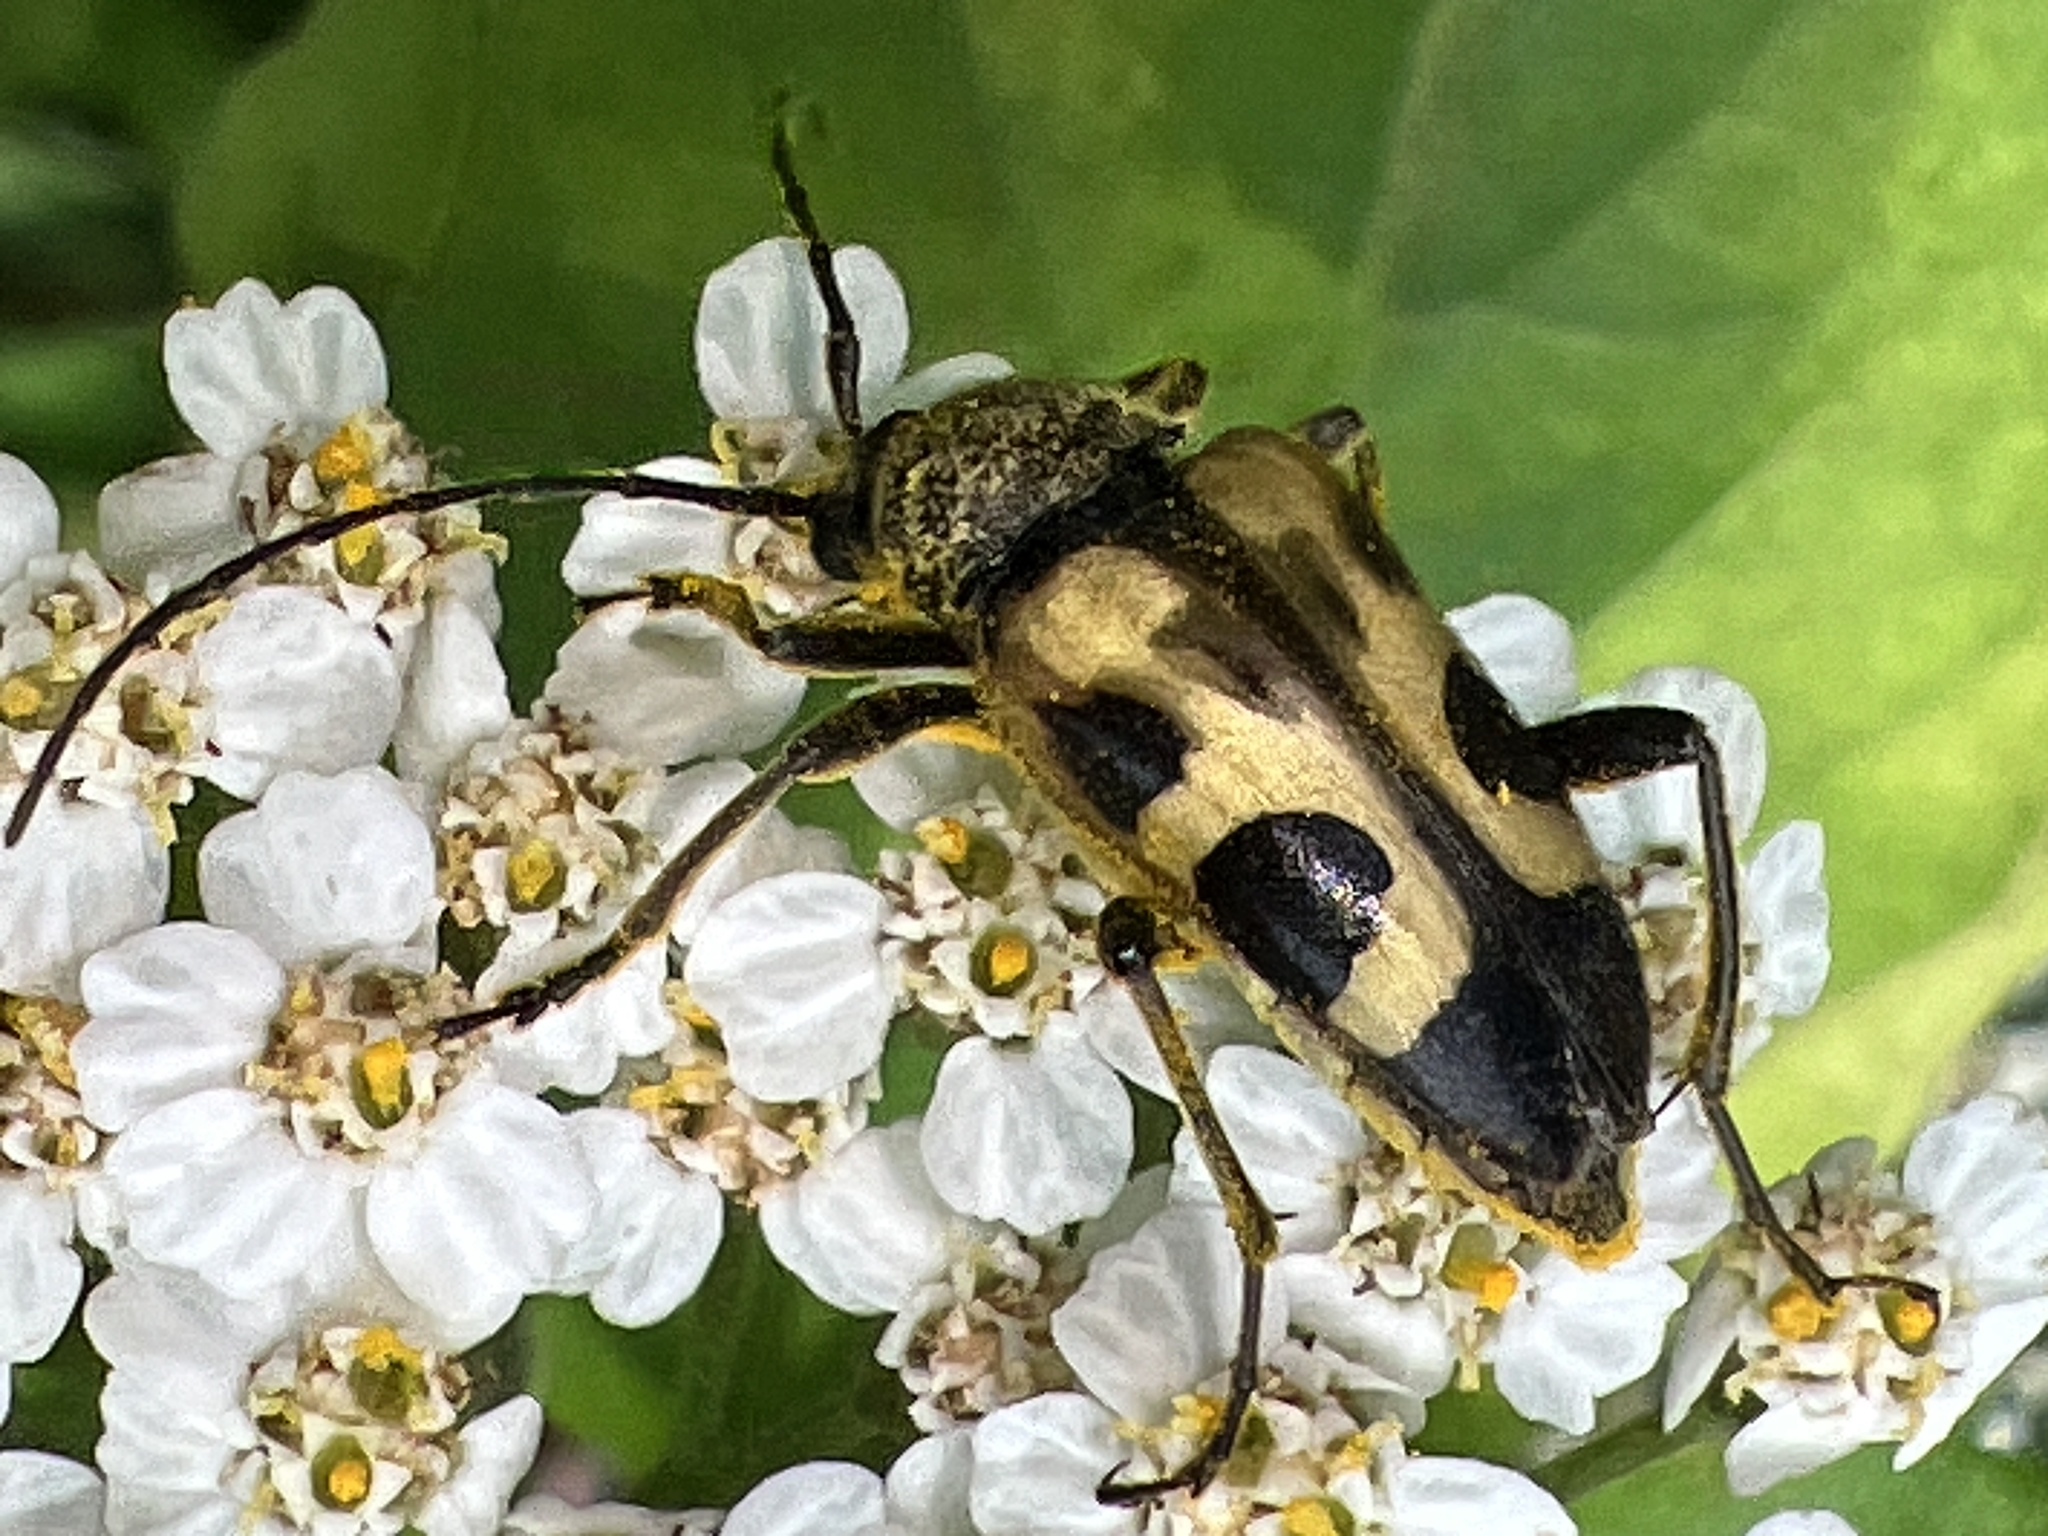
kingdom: Animalia
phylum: Arthropoda
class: Insecta
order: Coleoptera
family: Cerambycidae
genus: Judolia
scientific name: Judolia cordifera
